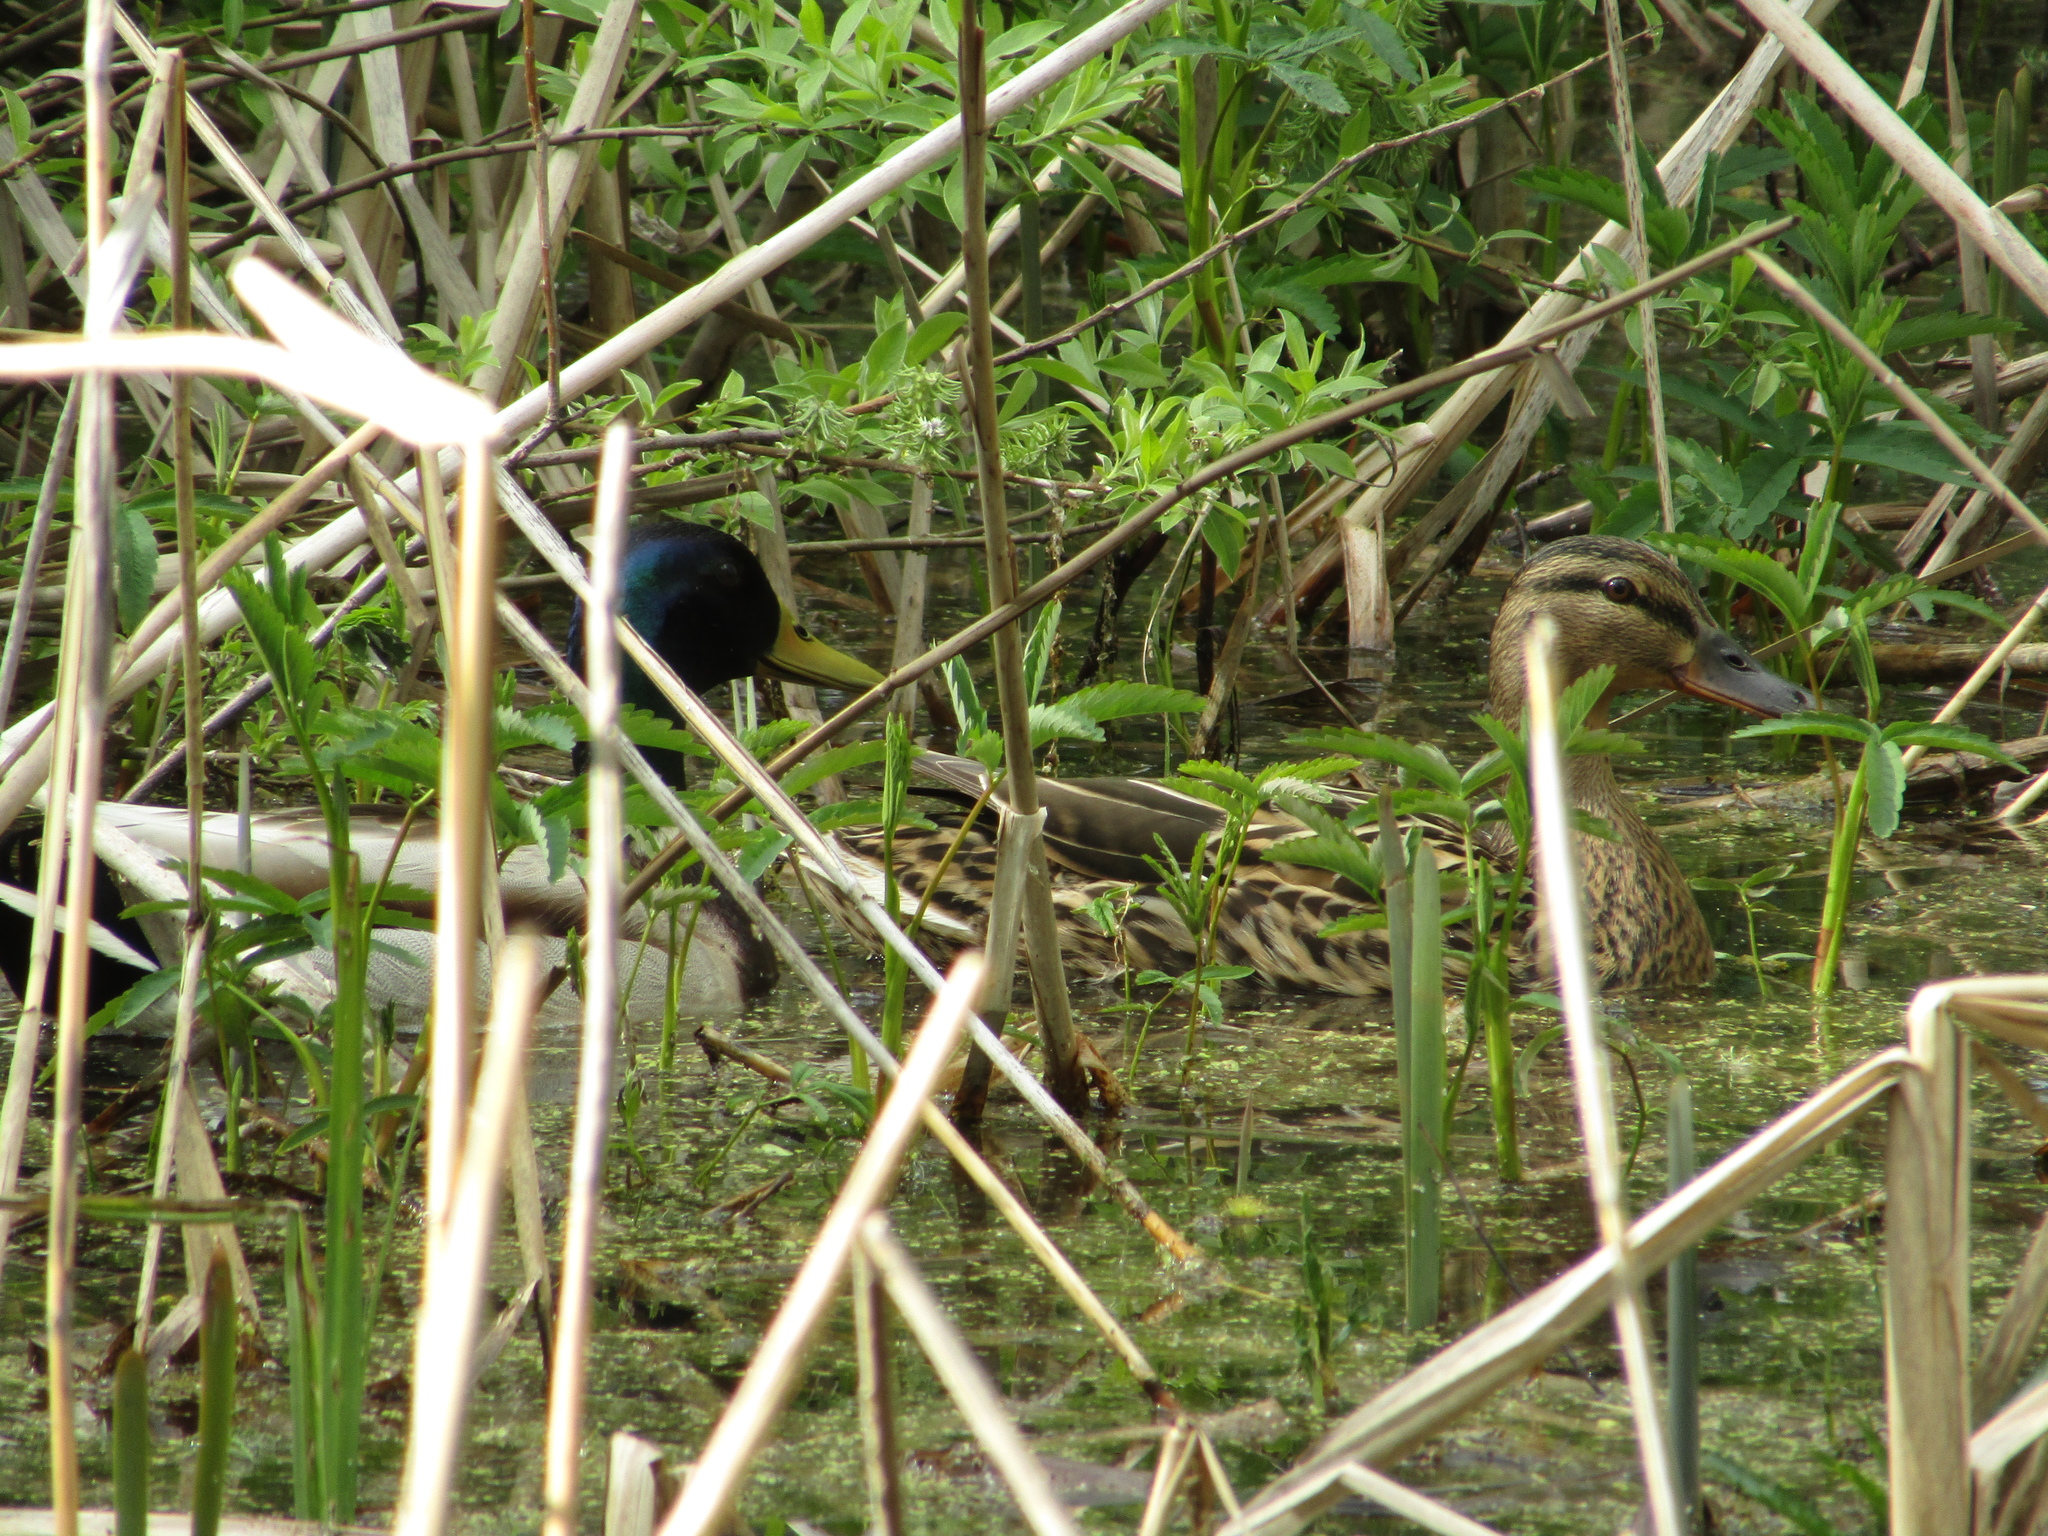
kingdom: Animalia
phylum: Chordata
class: Aves
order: Anseriformes
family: Anatidae
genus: Anas
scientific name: Anas platyrhynchos
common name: Mallard
